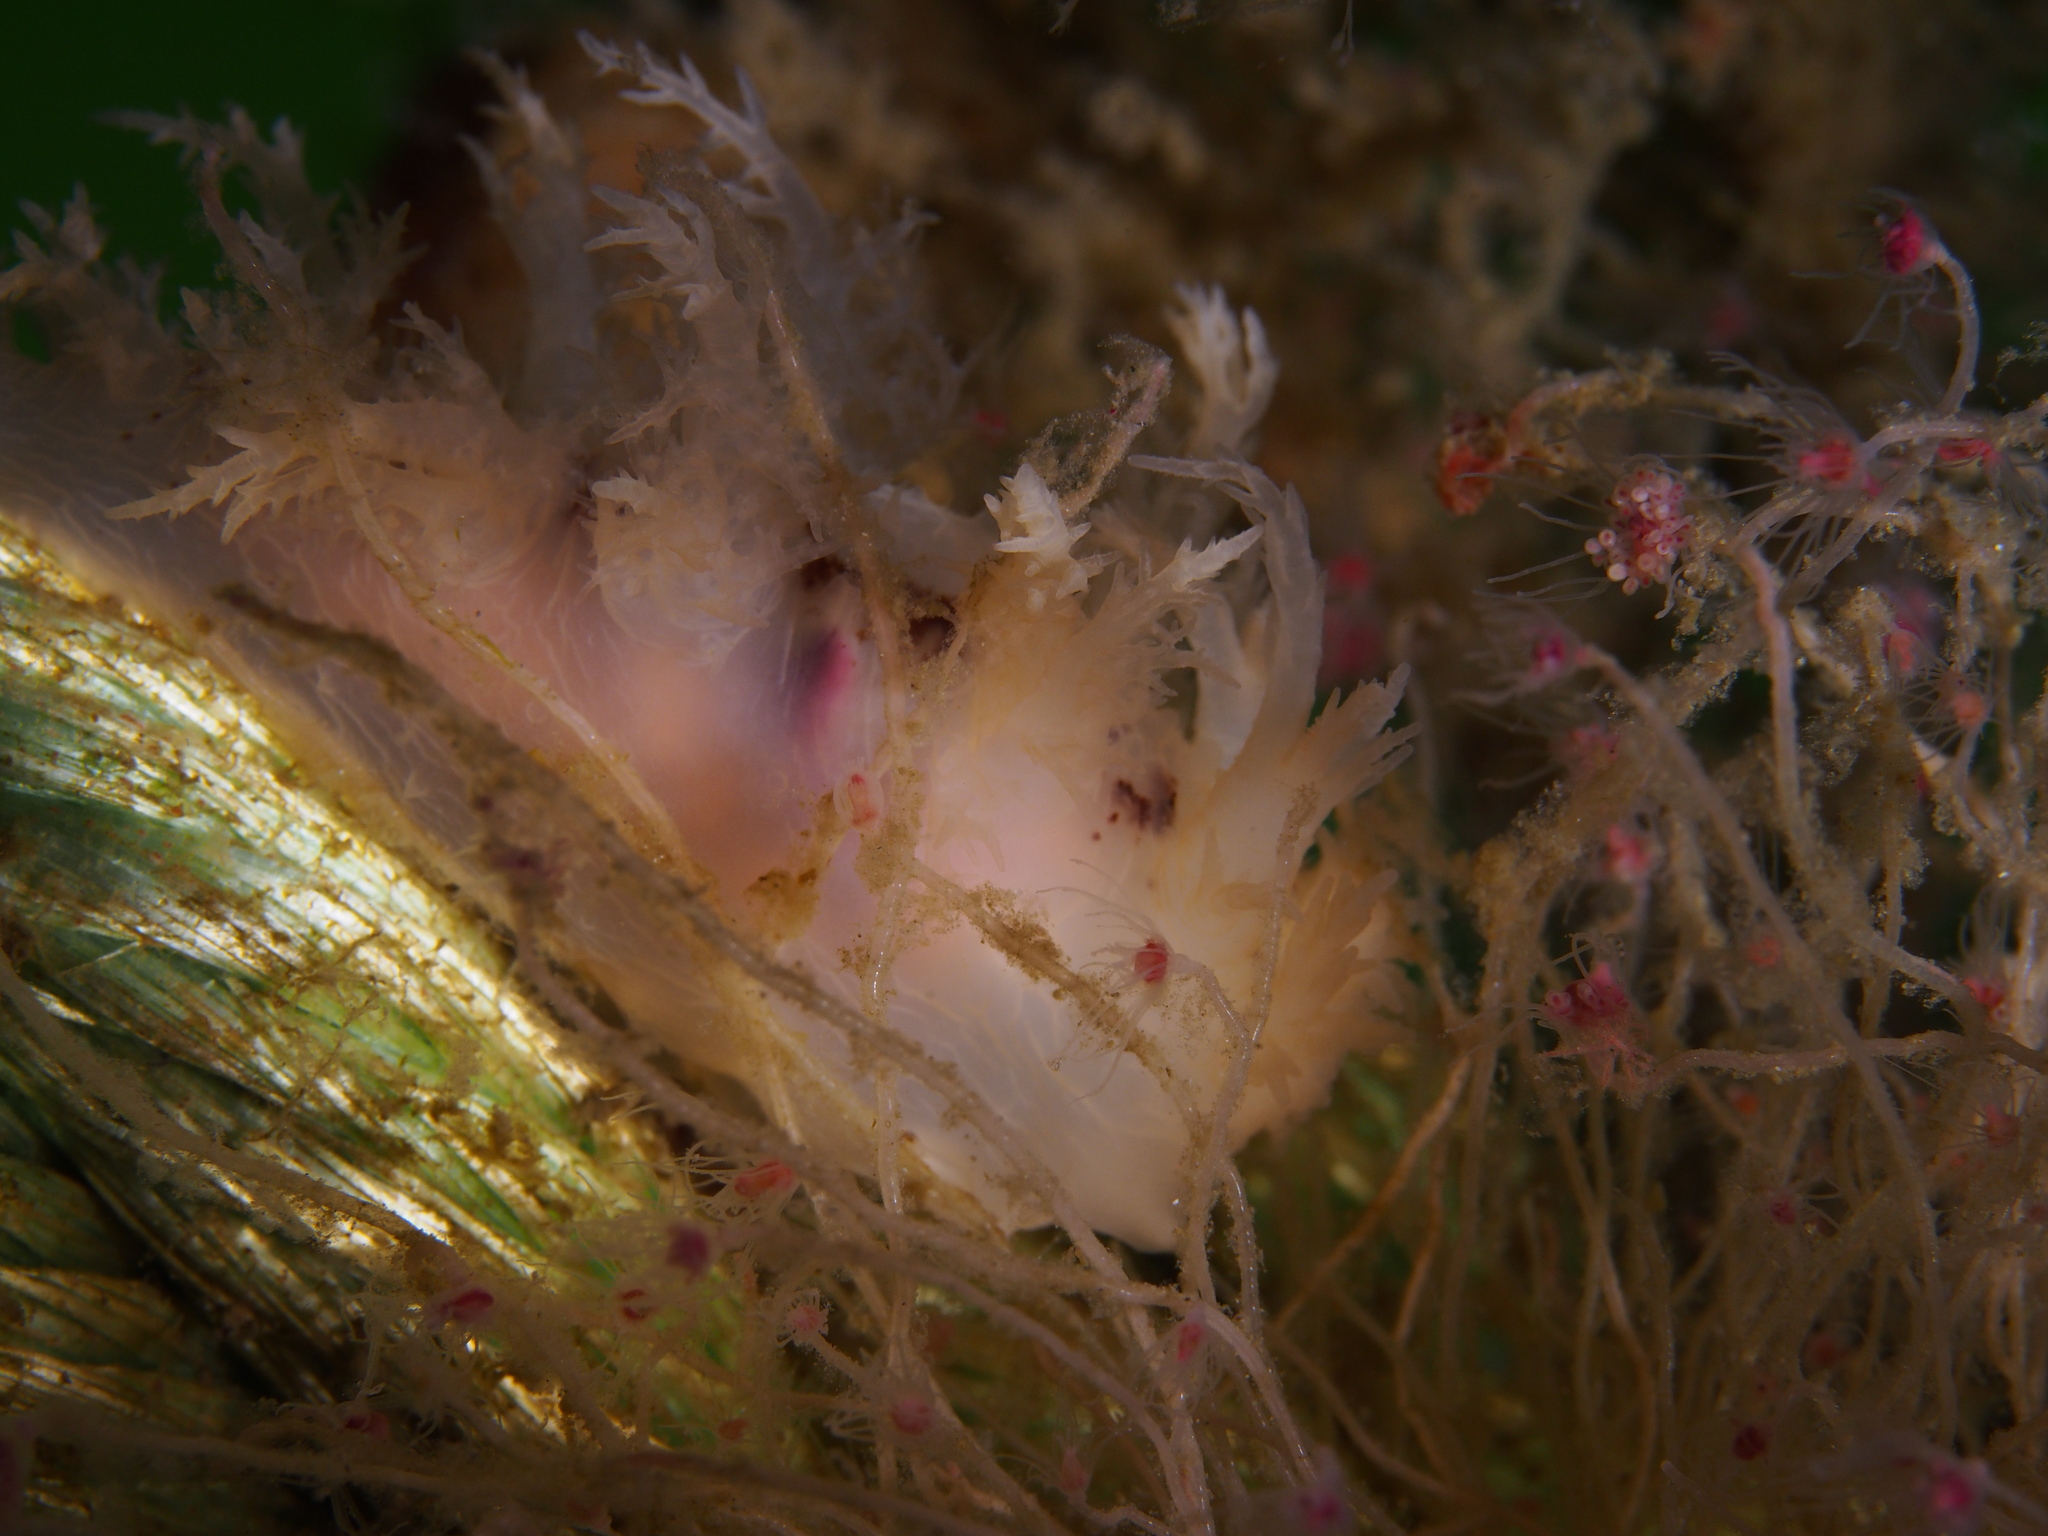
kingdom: Animalia
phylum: Mollusca
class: Gastropoda
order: Nudibranchia
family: Dendronotidae
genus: Dendronotus
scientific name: Dendronotus europaeus
